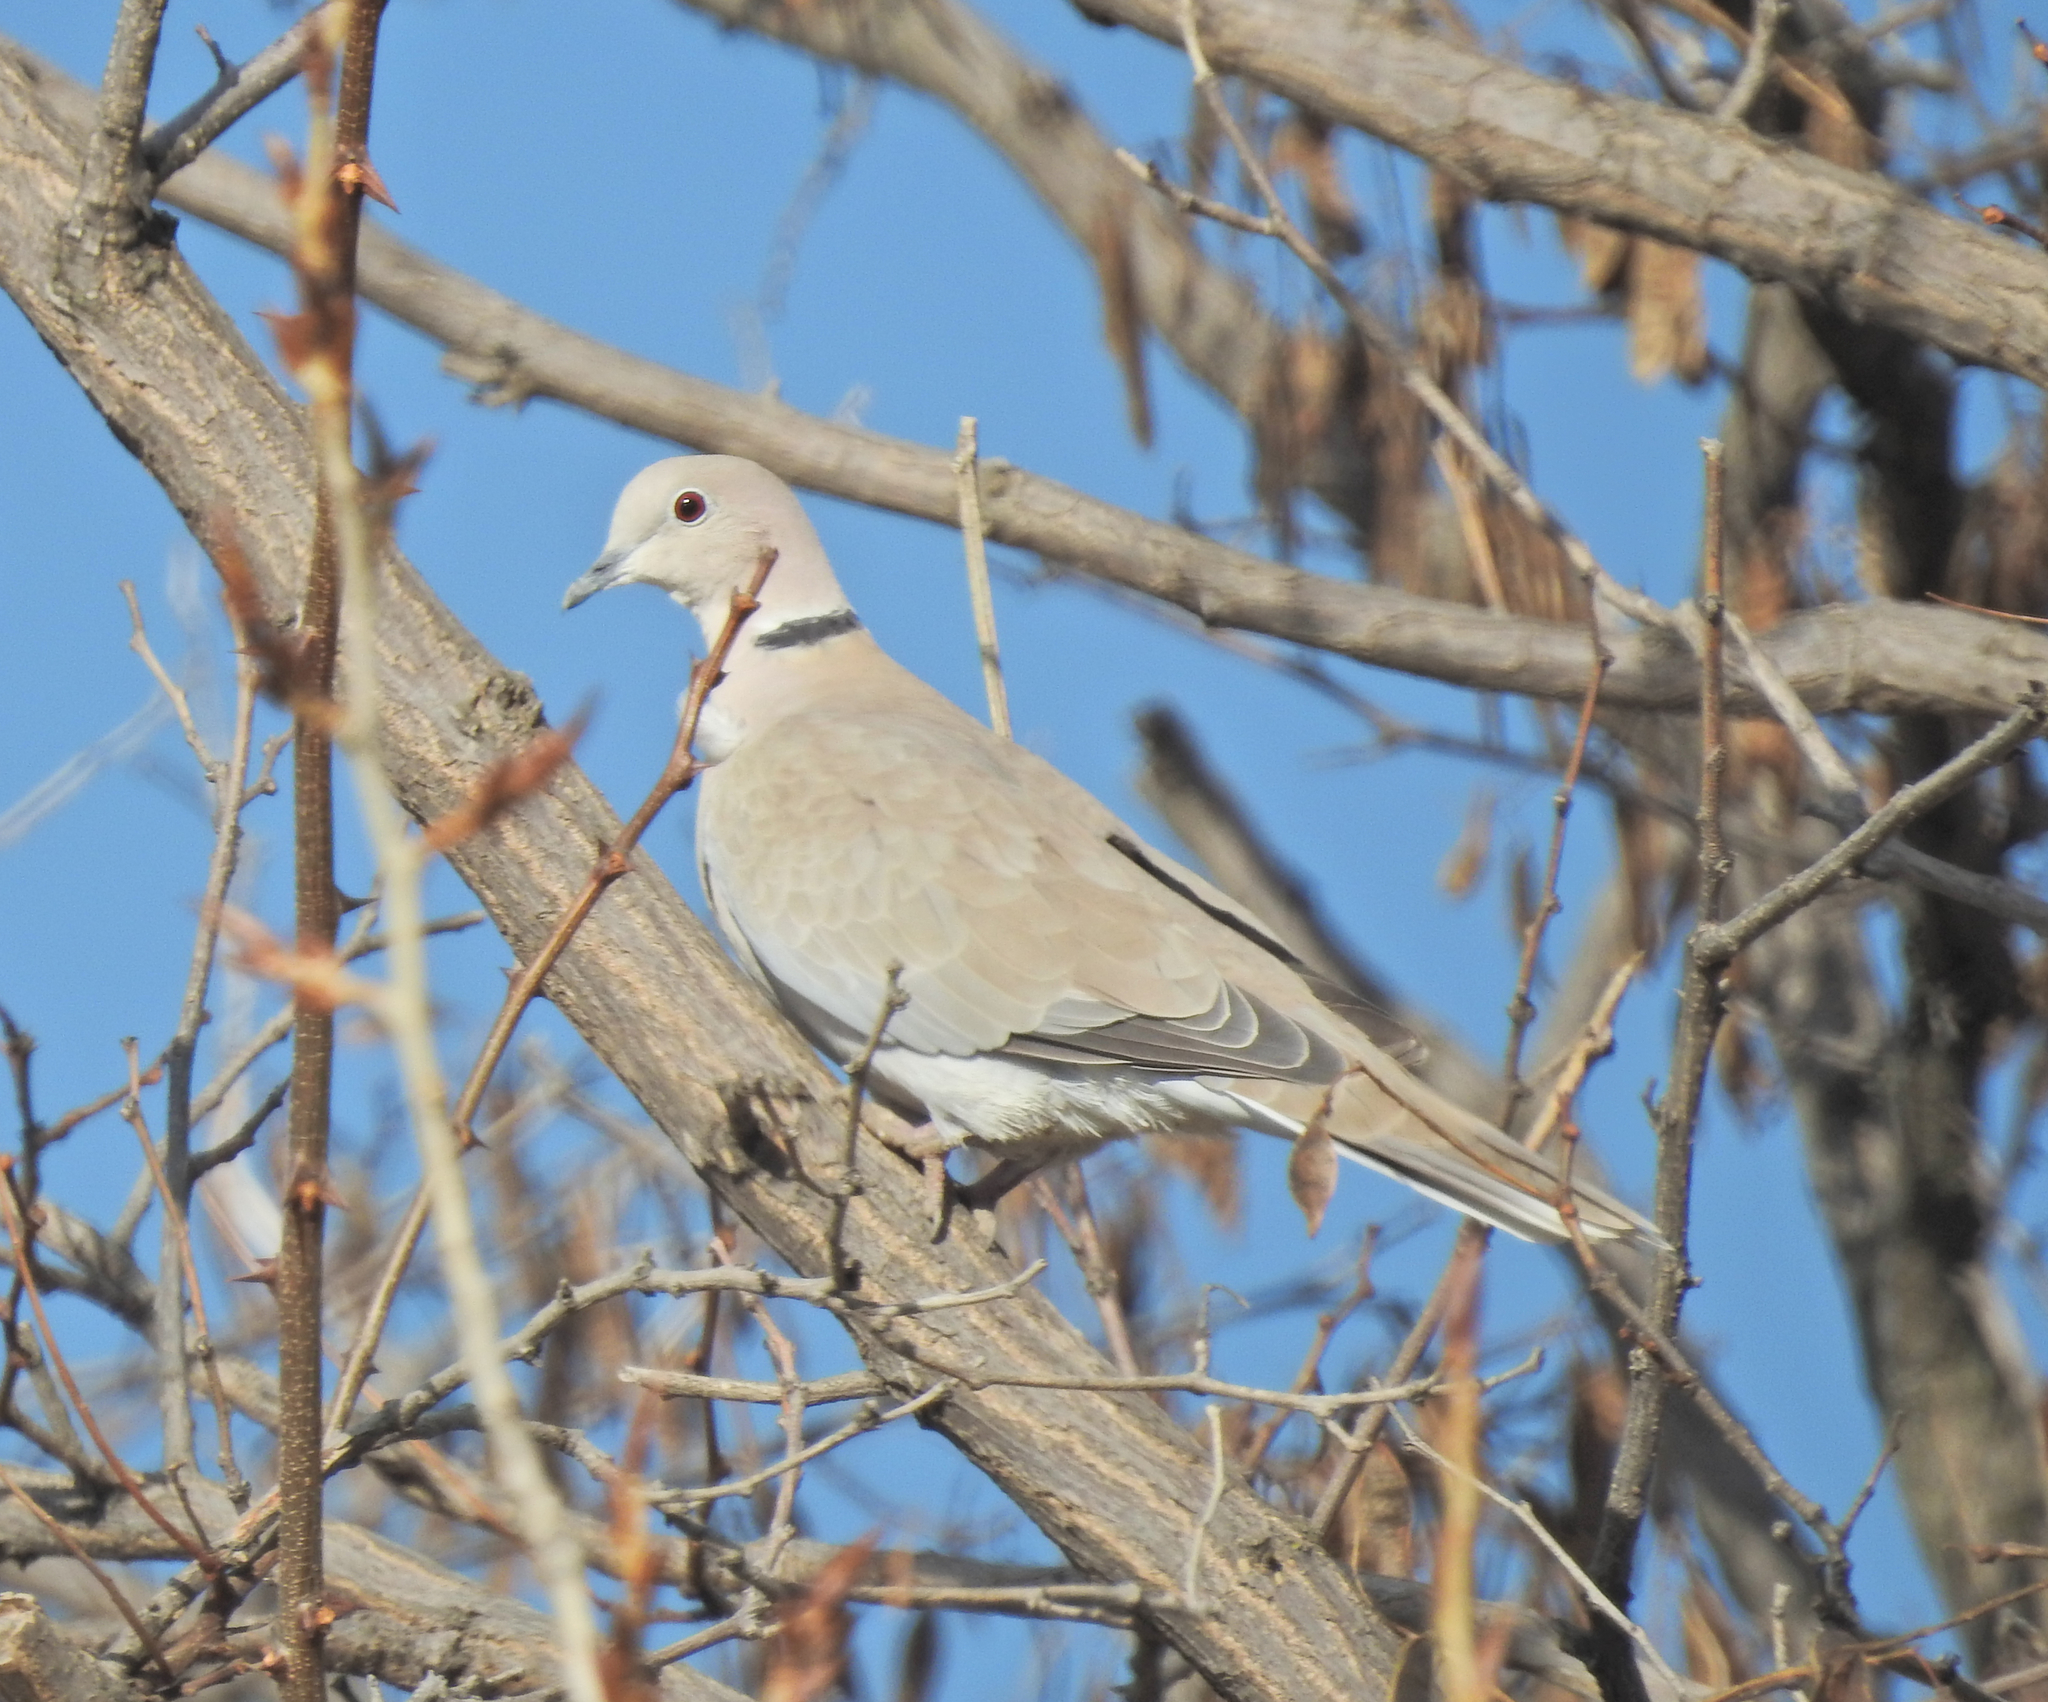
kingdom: Animalia
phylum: Chordata
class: Aves
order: Columbiformes
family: Columbidae
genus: Streptopelia
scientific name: Streptopelia decaocto
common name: Eurasian collared dove
